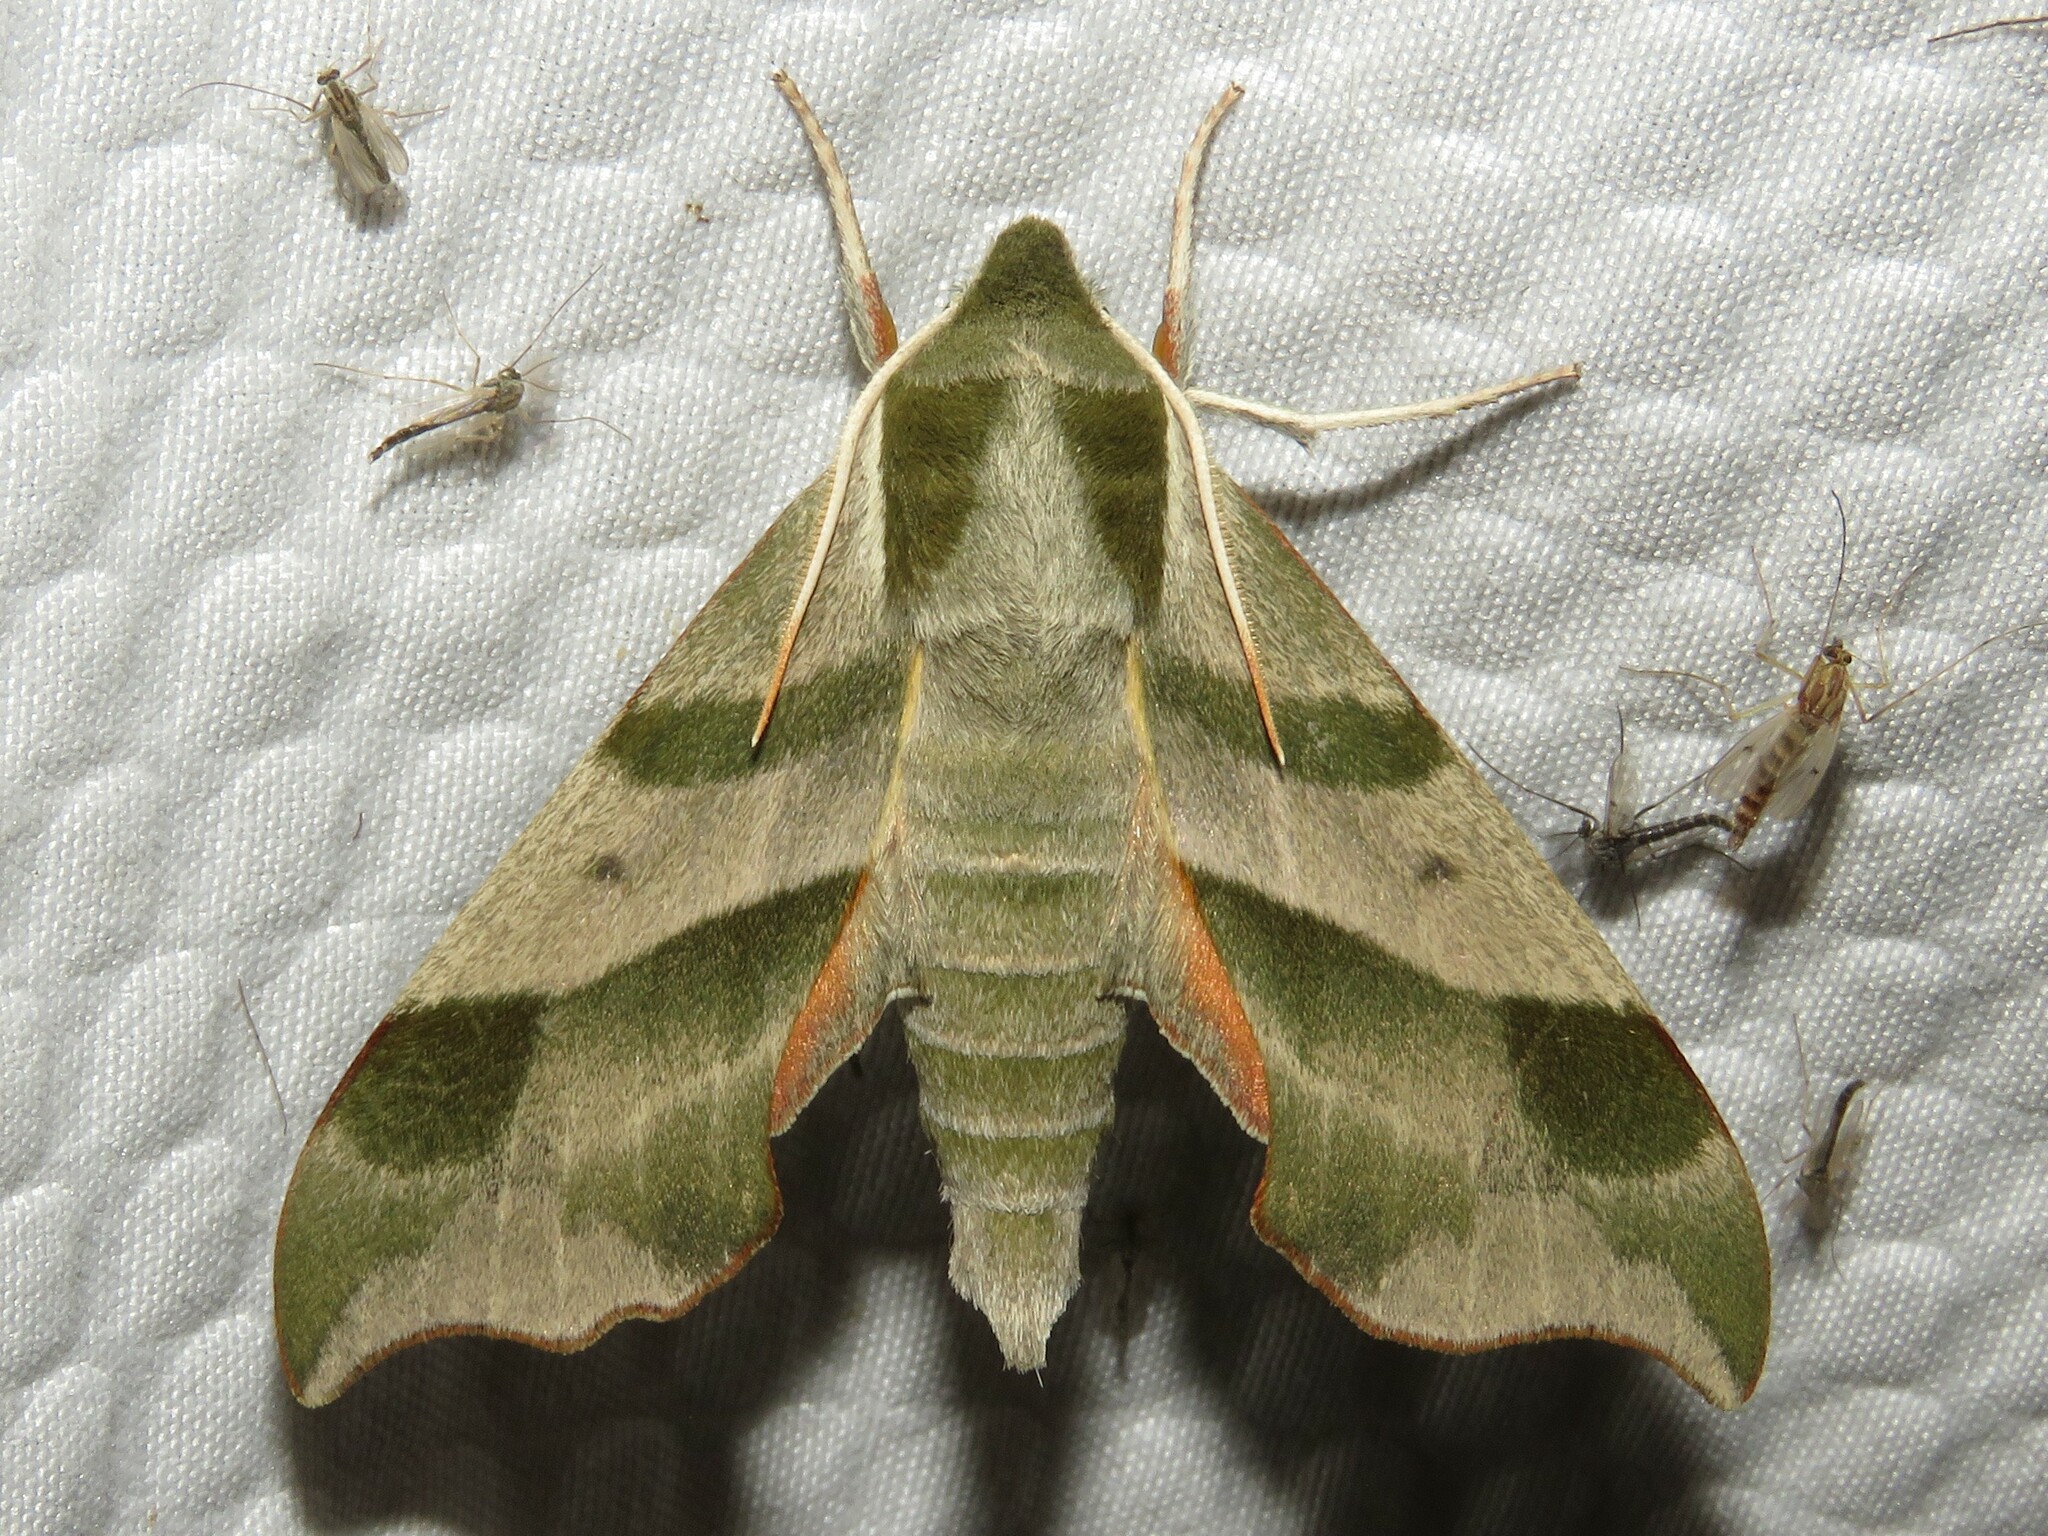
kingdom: Animalia
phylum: Arthropoda
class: Insecta
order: Lepidoptera
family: Sphingidae
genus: Darapsa
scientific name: Darapsa myron
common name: Hog sphinx
